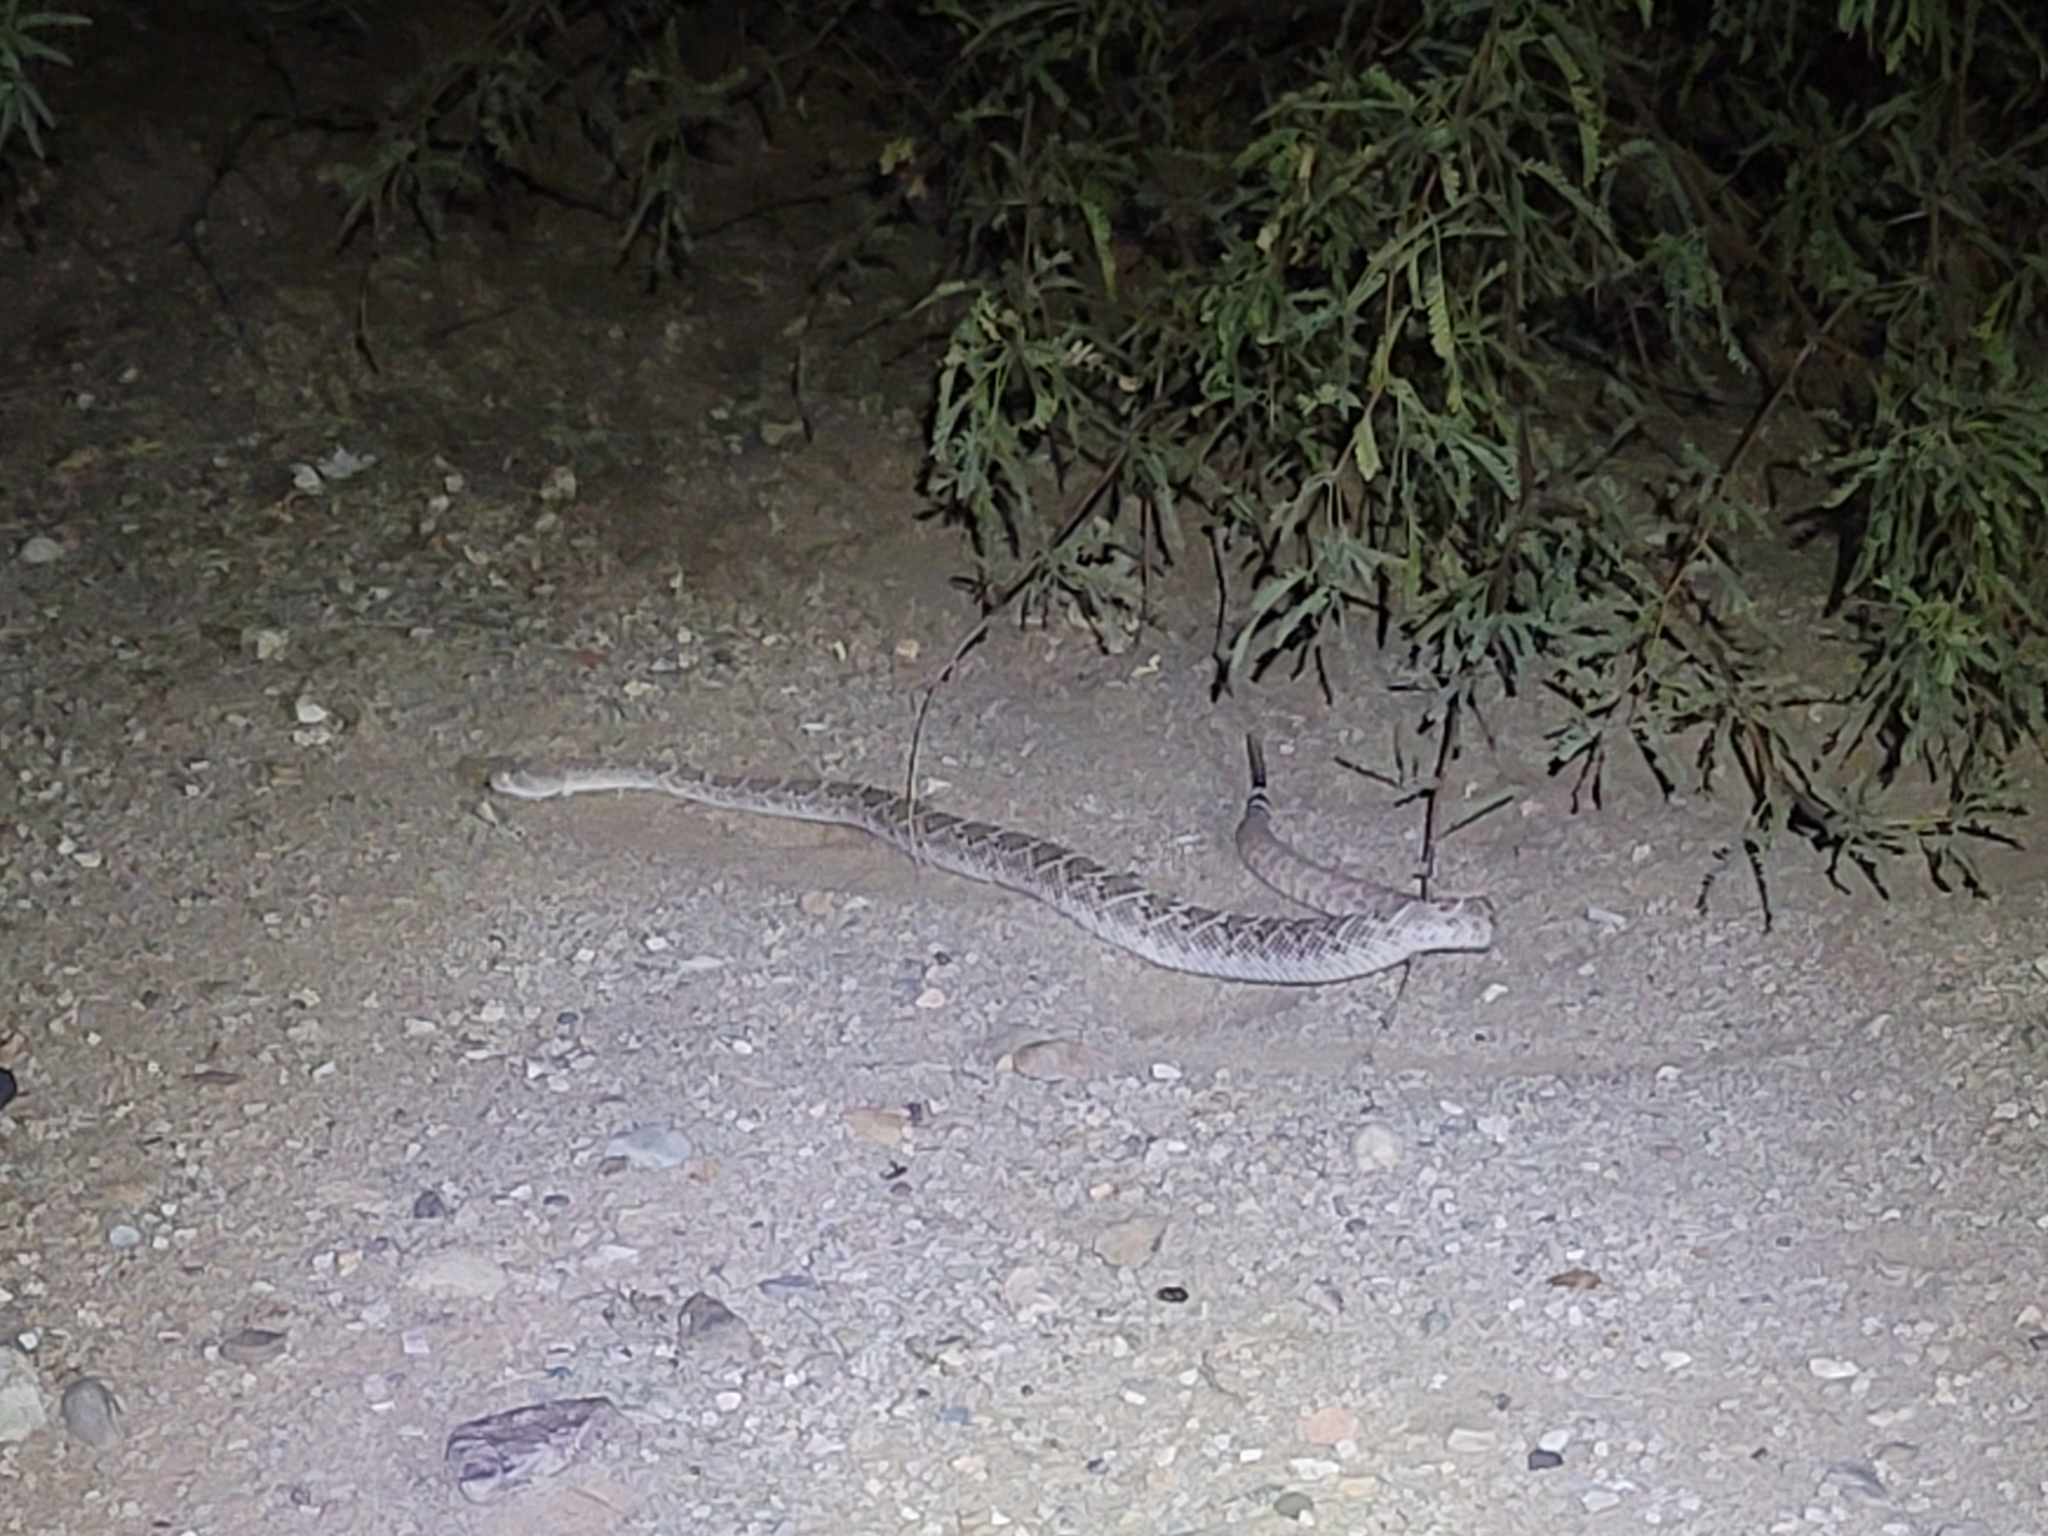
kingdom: Animalia
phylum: Chordata
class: Squamata
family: Viperidae
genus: Crotalus
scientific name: Crotalus atrox
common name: Western diamond-backed rattlesnake
